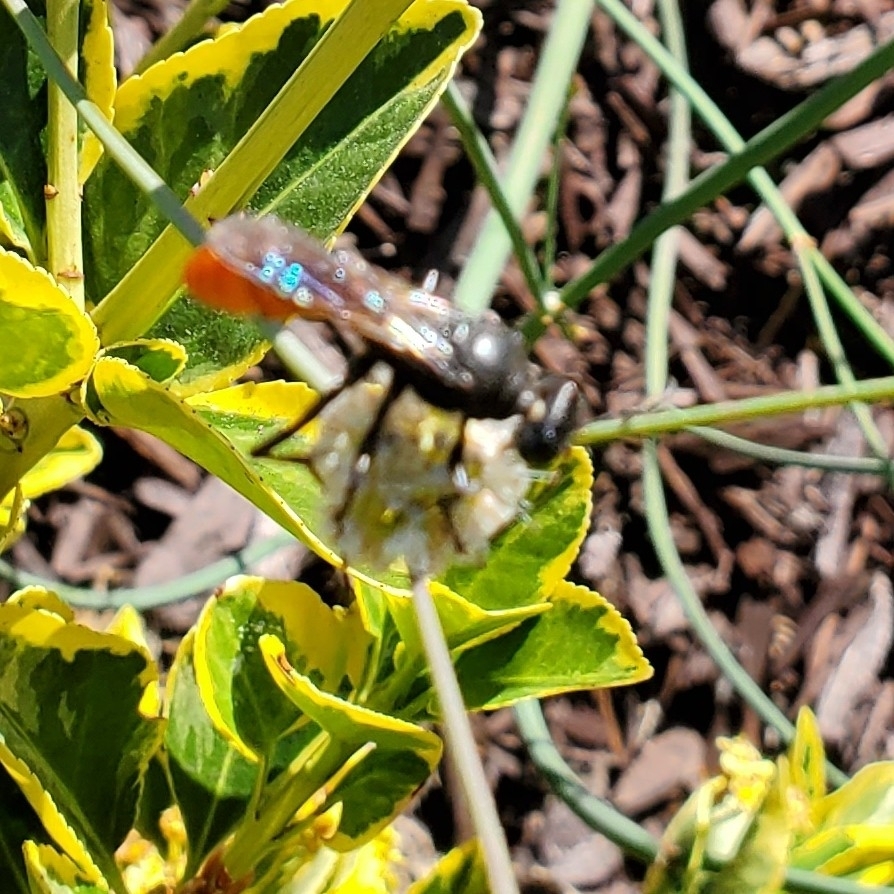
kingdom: Animalia
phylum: Arthropoda
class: Insecta
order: Hymenoptera
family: Sphecidae
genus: Sphex
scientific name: Sphex lucae
